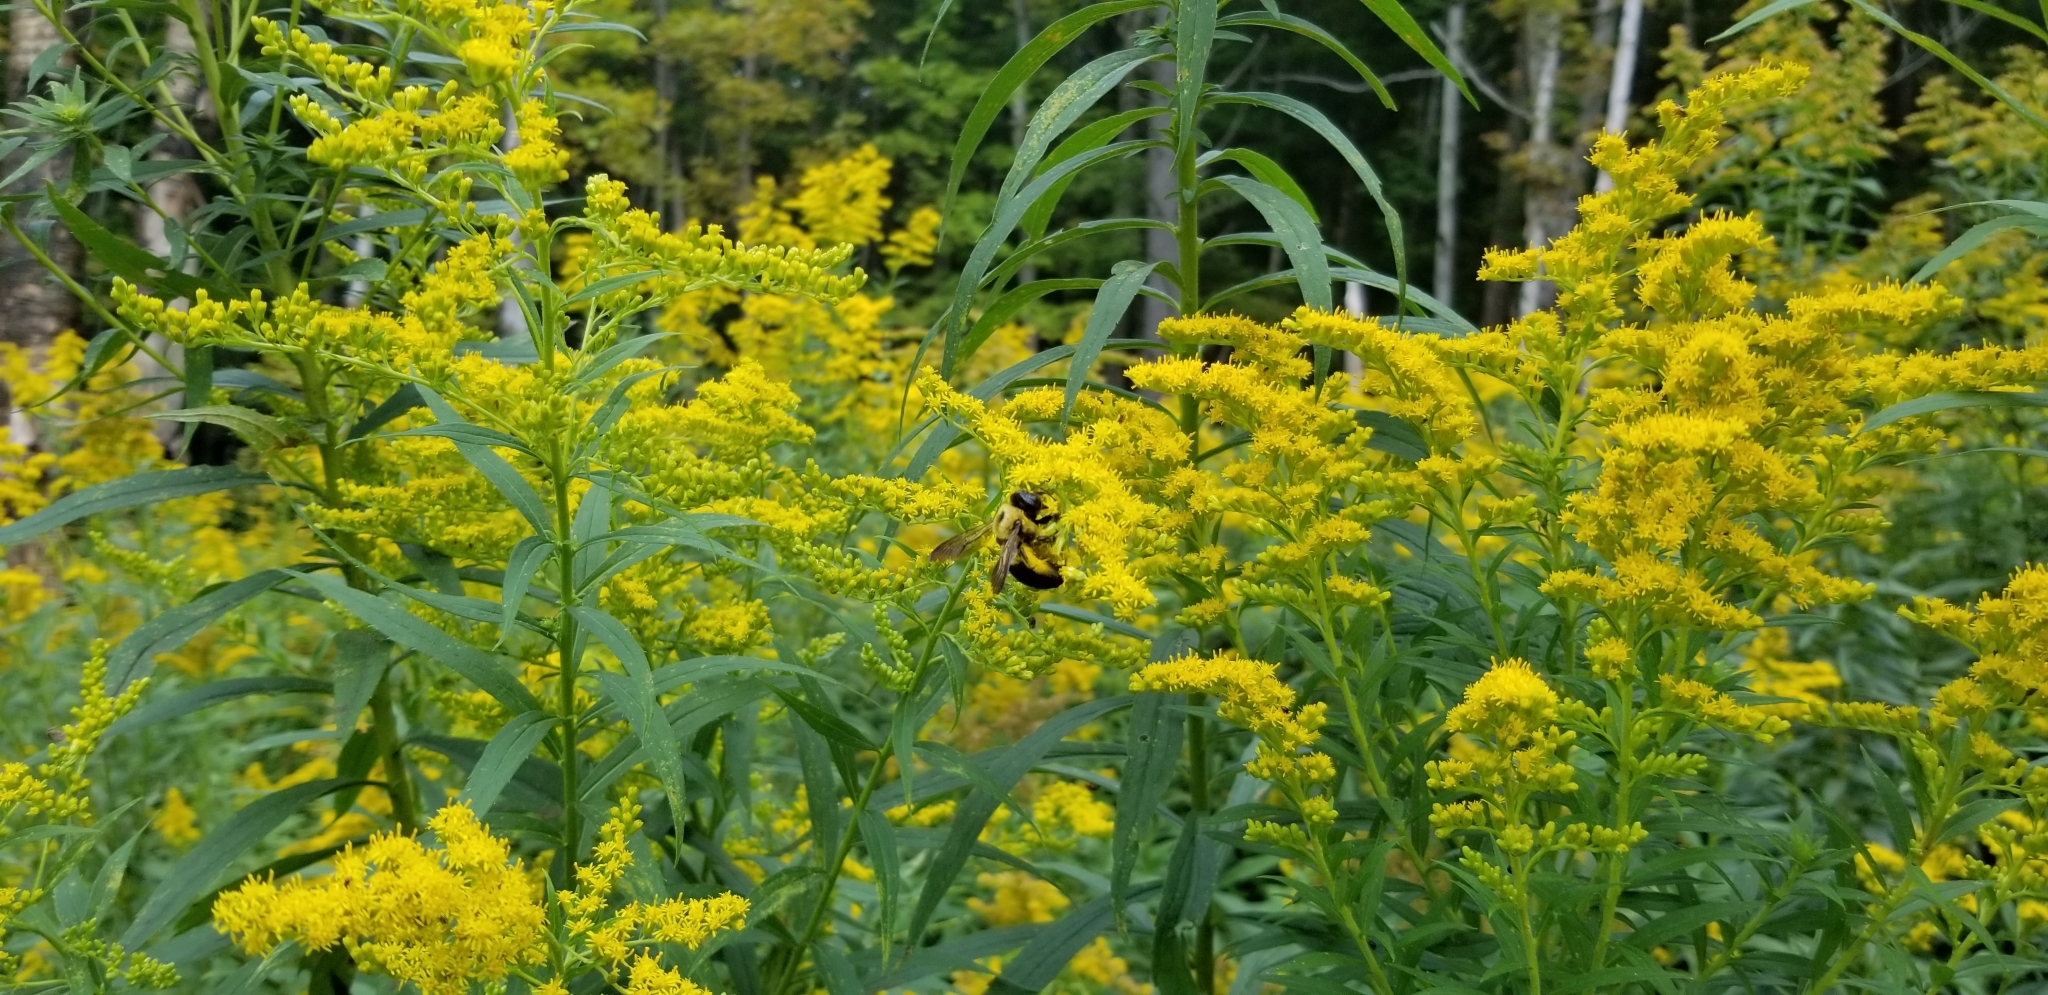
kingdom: Animalia
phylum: Arthropoda
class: Insecta
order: Hymenoptera
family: Apidae
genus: Xylocopa
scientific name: Xylocopa virginica
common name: Carpenter bee
